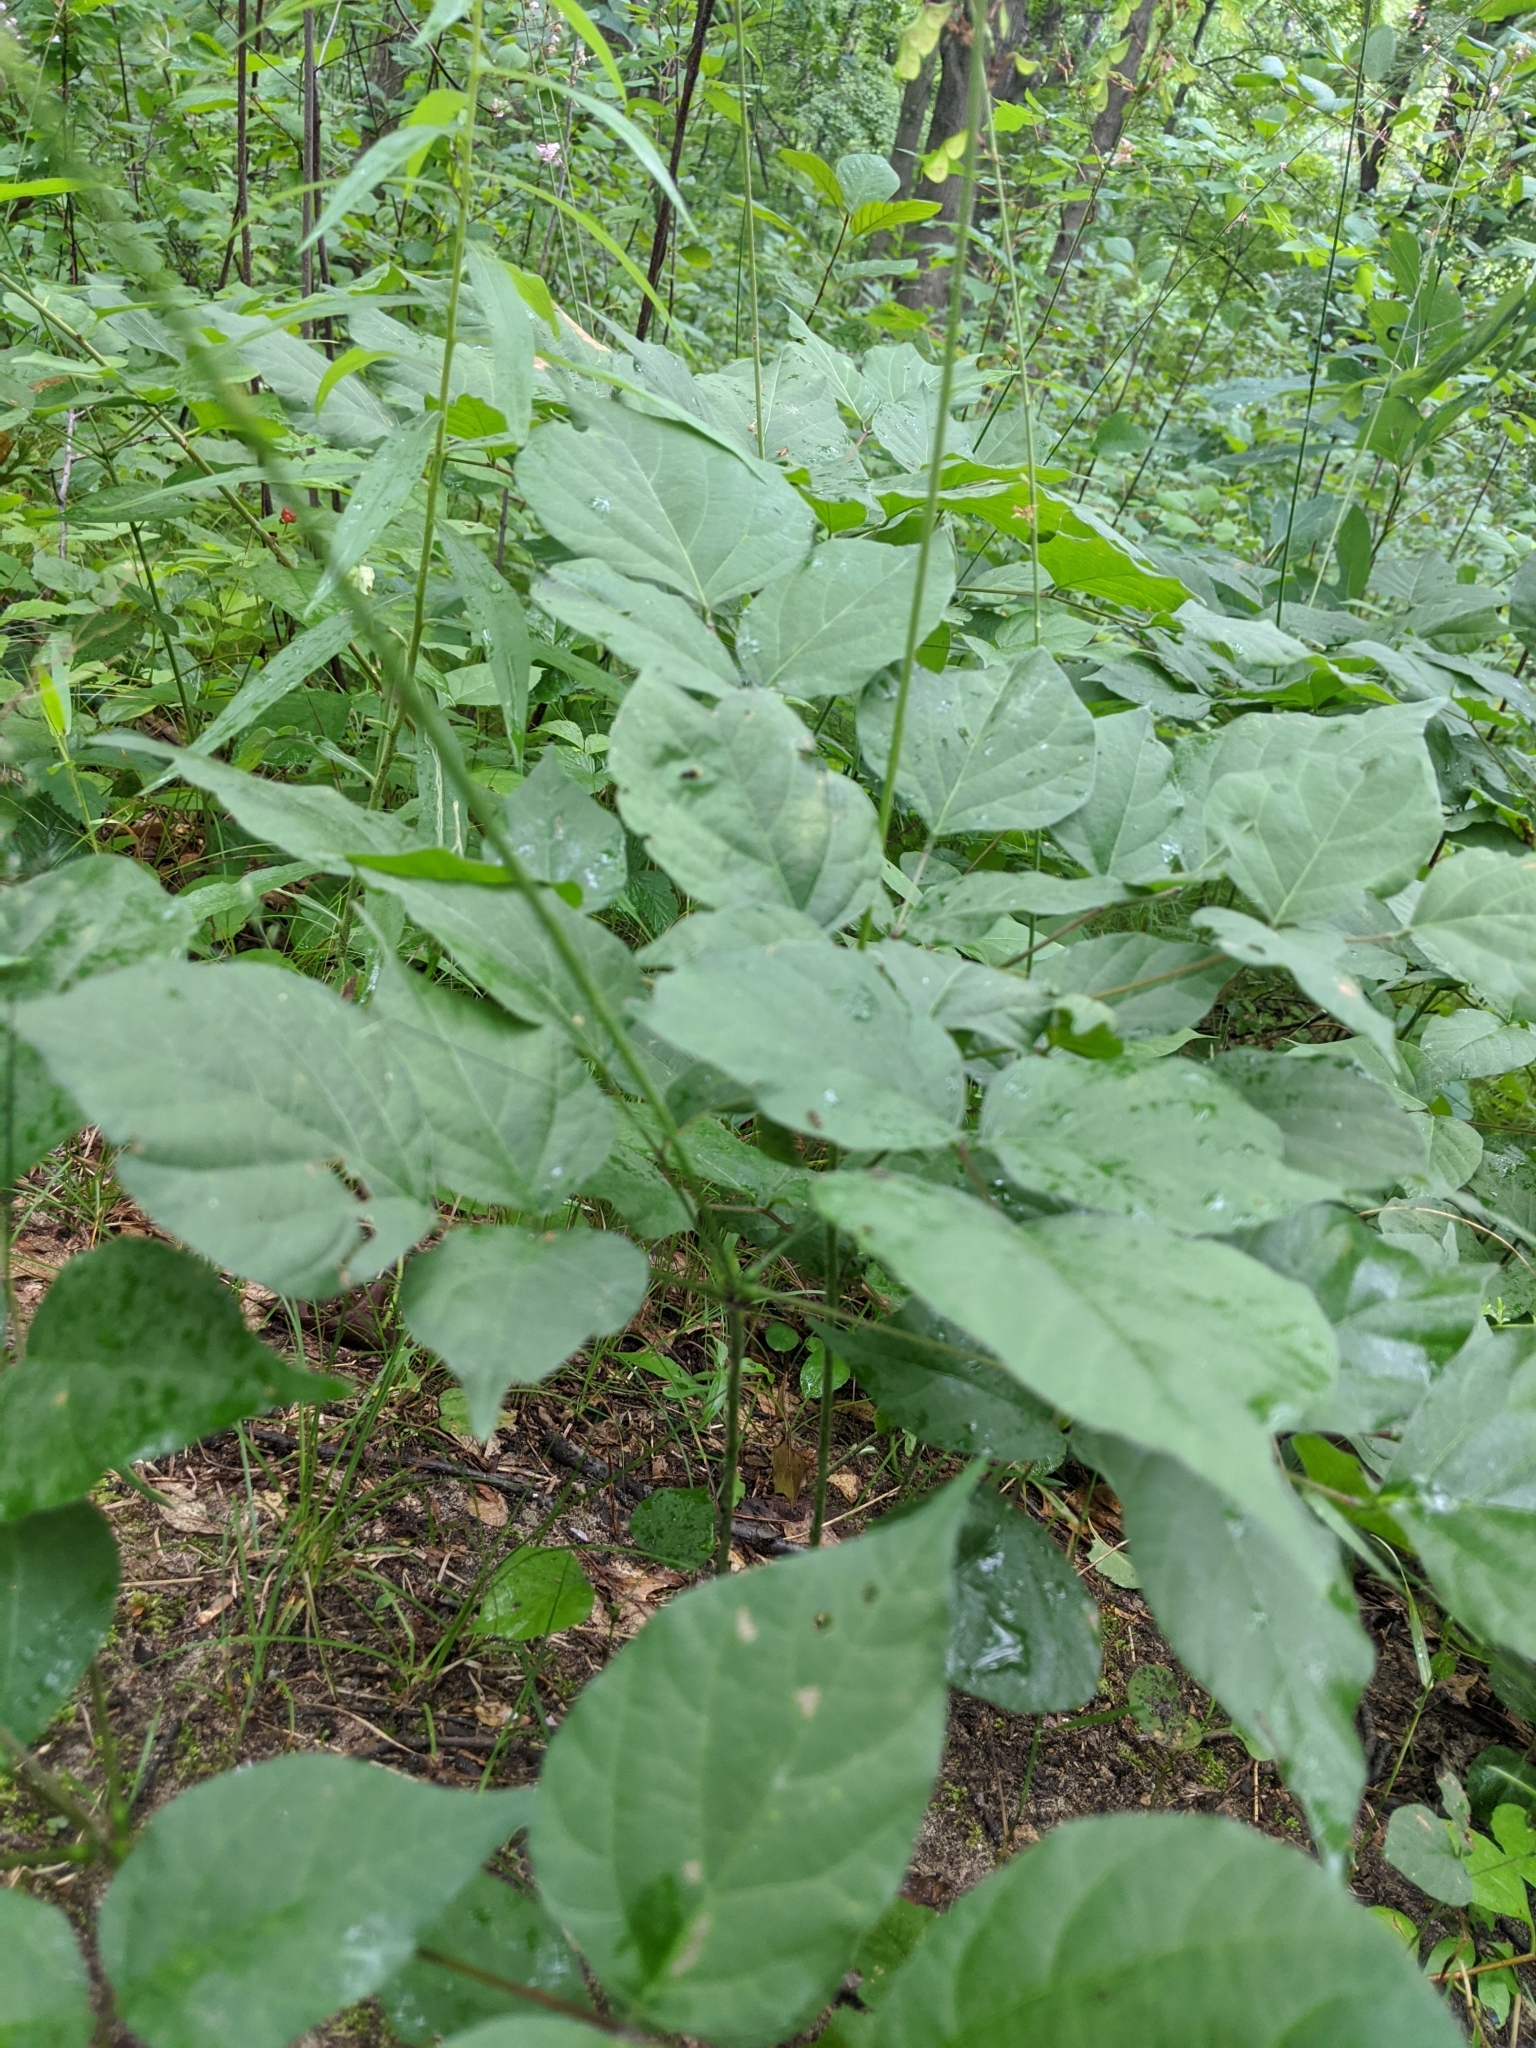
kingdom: Plantae
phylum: Tracheophyta
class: Magnoliopsida
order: Fabales
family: Fabaceae
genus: Hylodesmum
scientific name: Hylodesmum glutinosum
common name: Clustered-leaved tick-trefoil
